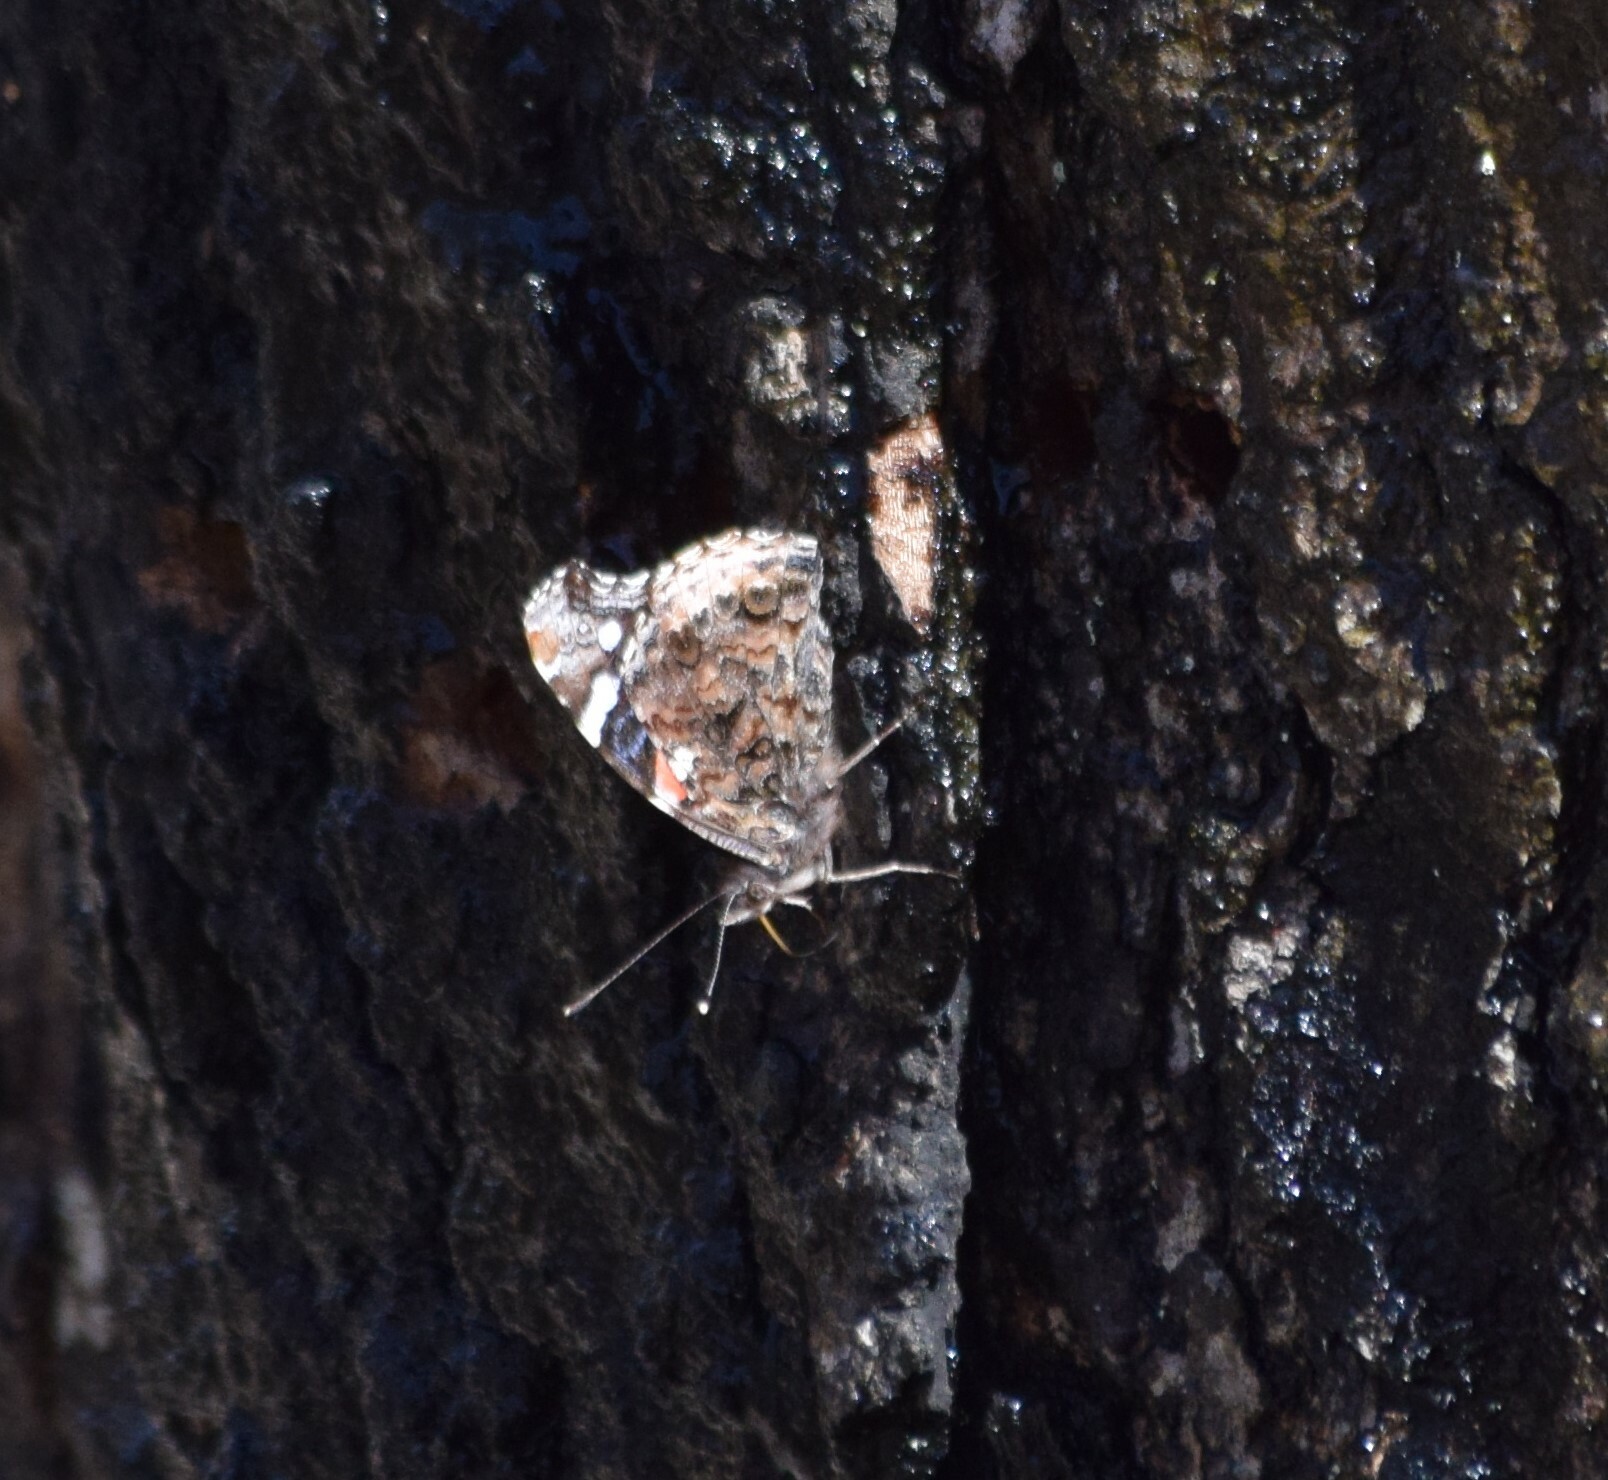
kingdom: Animalia
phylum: Arthropoda
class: Insecta
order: Lepidoptera
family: Nymphalidae
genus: Vanessa
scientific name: Vanessa atalanta
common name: Red admiral
